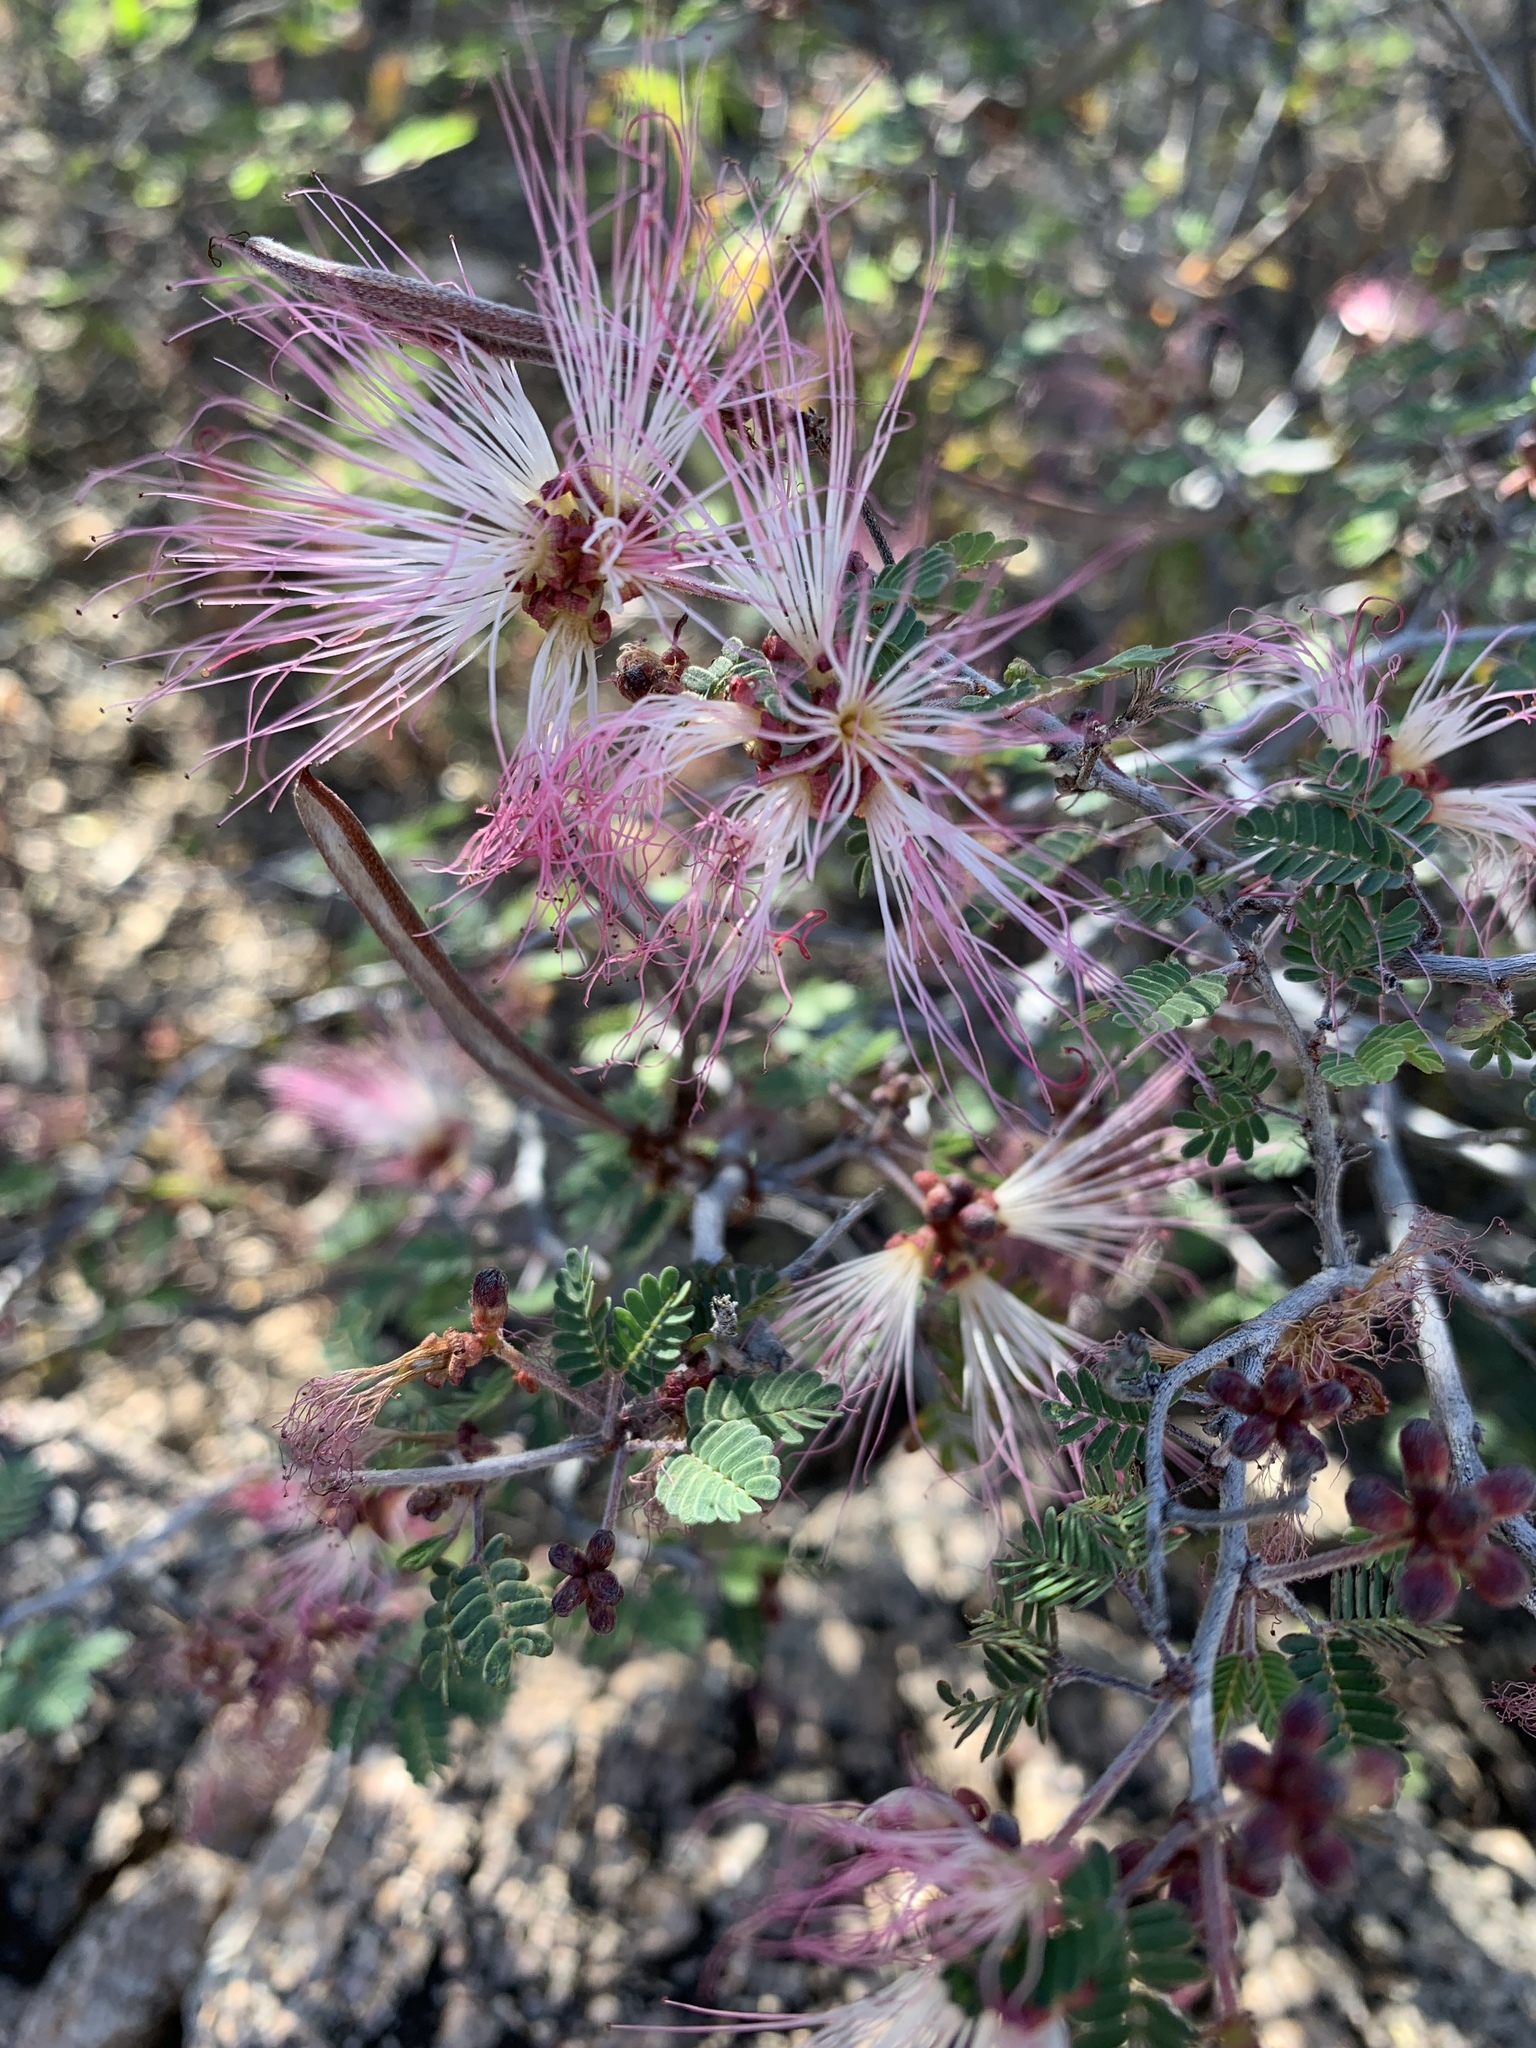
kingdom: Plantae
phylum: Tracheophyta
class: Magnoliopsida
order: Fabales
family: Fabaceae
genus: Calliandra
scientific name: Calliandra eriophylla
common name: Fairy-duster
